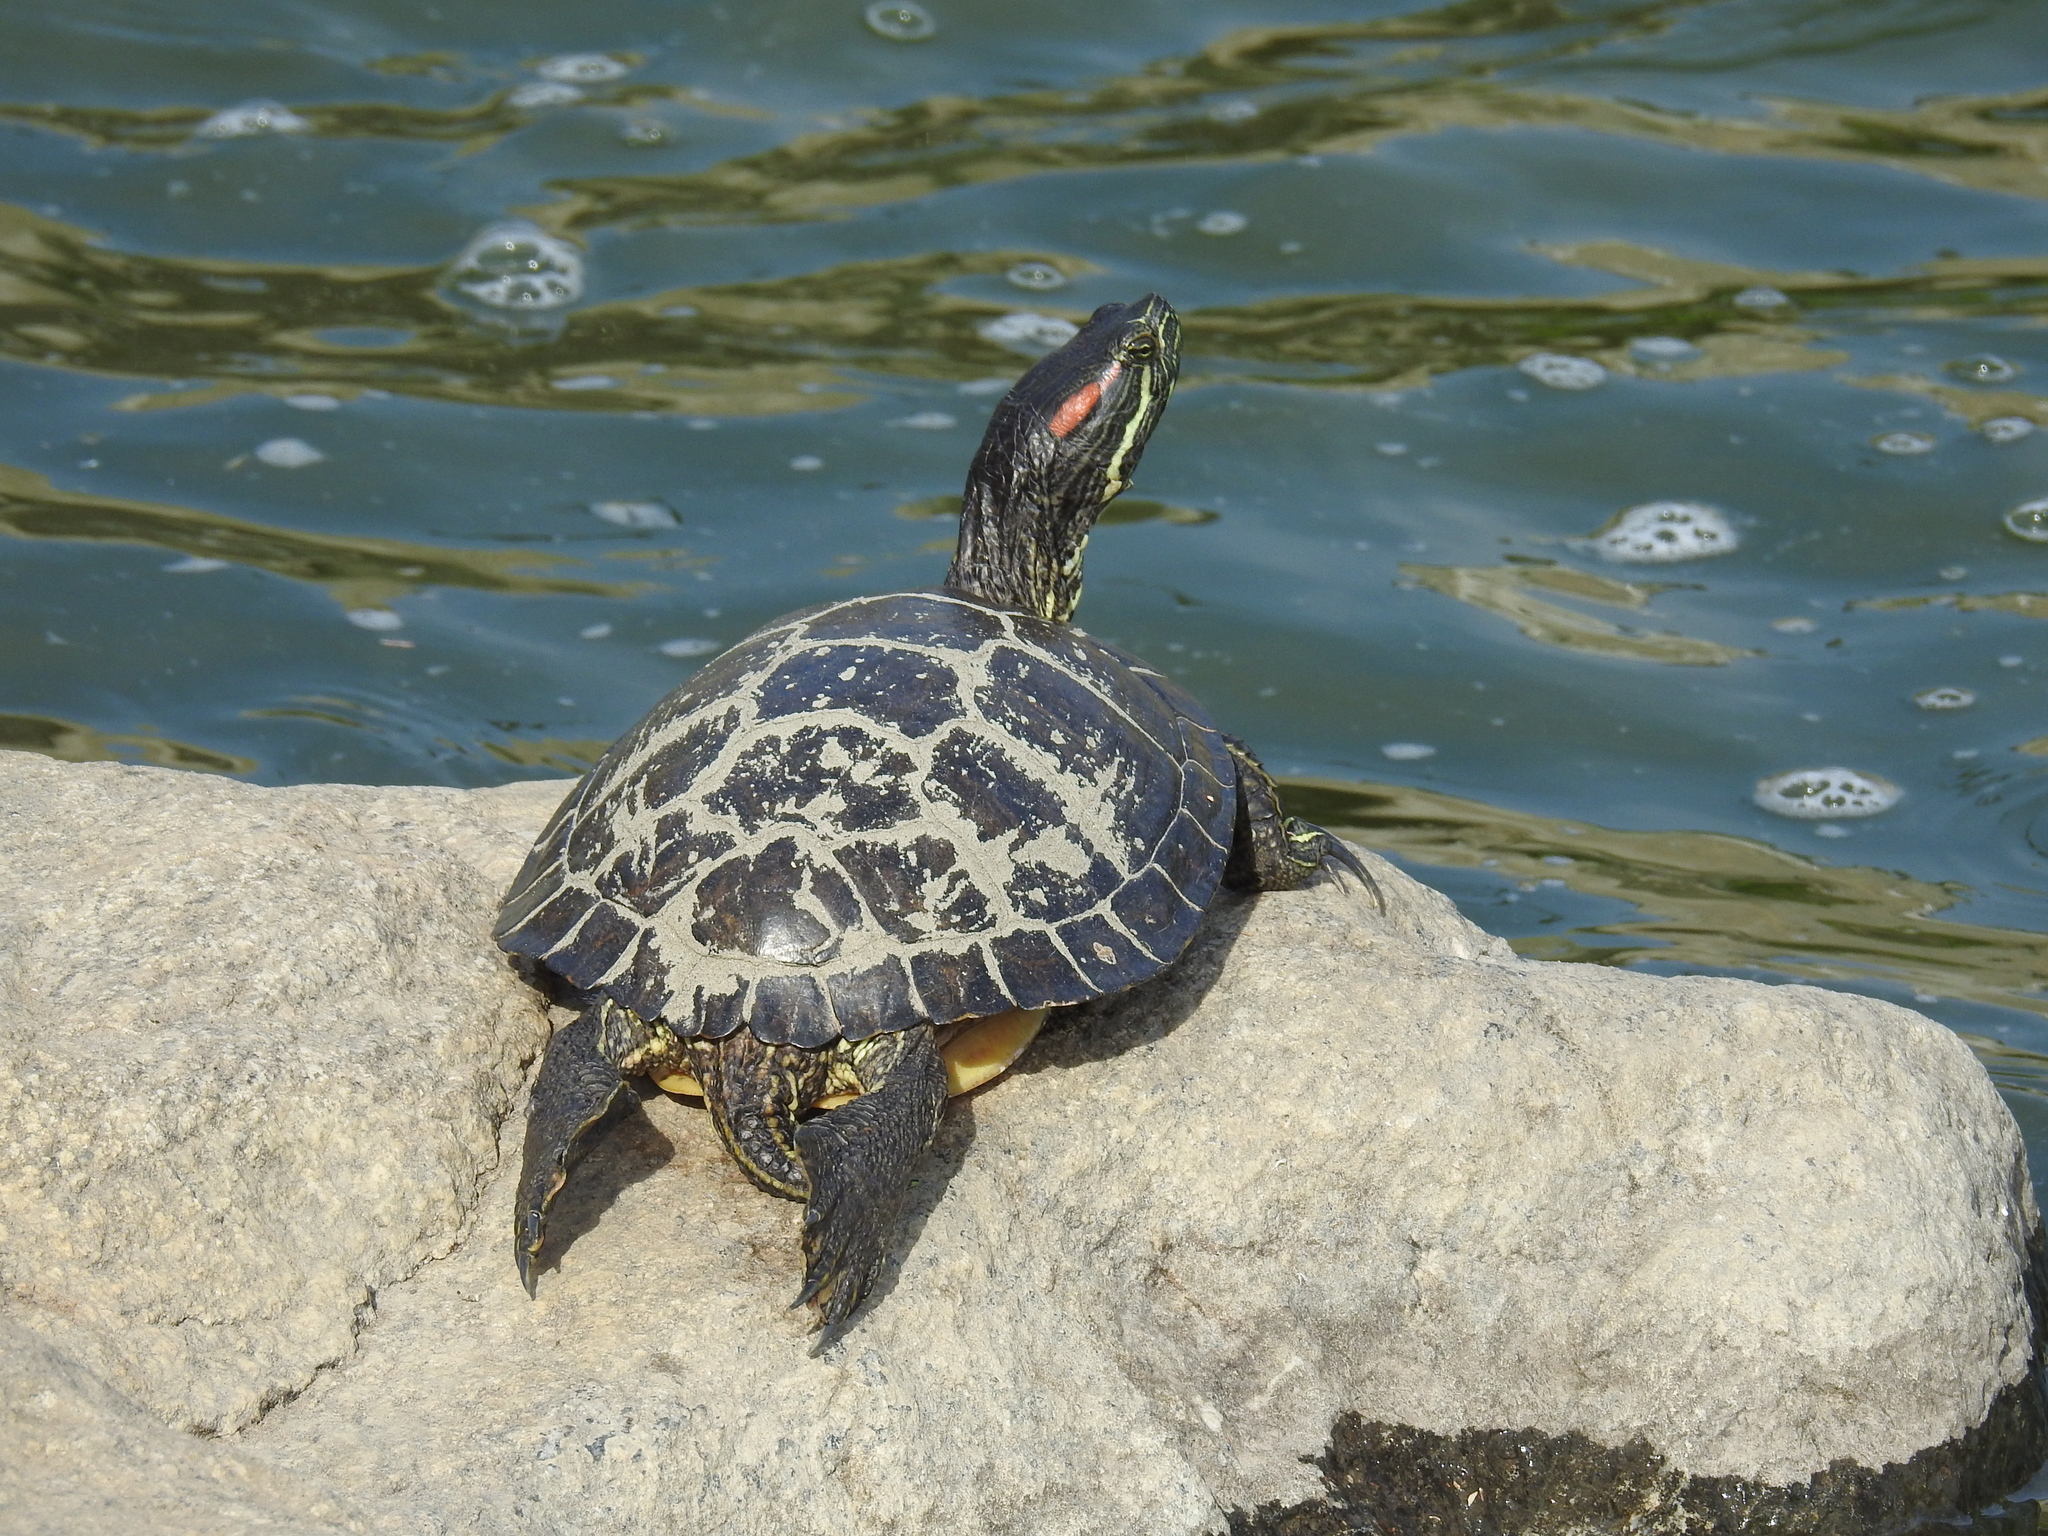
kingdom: Animalia
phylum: Chordata
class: Testudines
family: Emydidae
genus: Trachemys
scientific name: Trachemys scripta
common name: Slider
